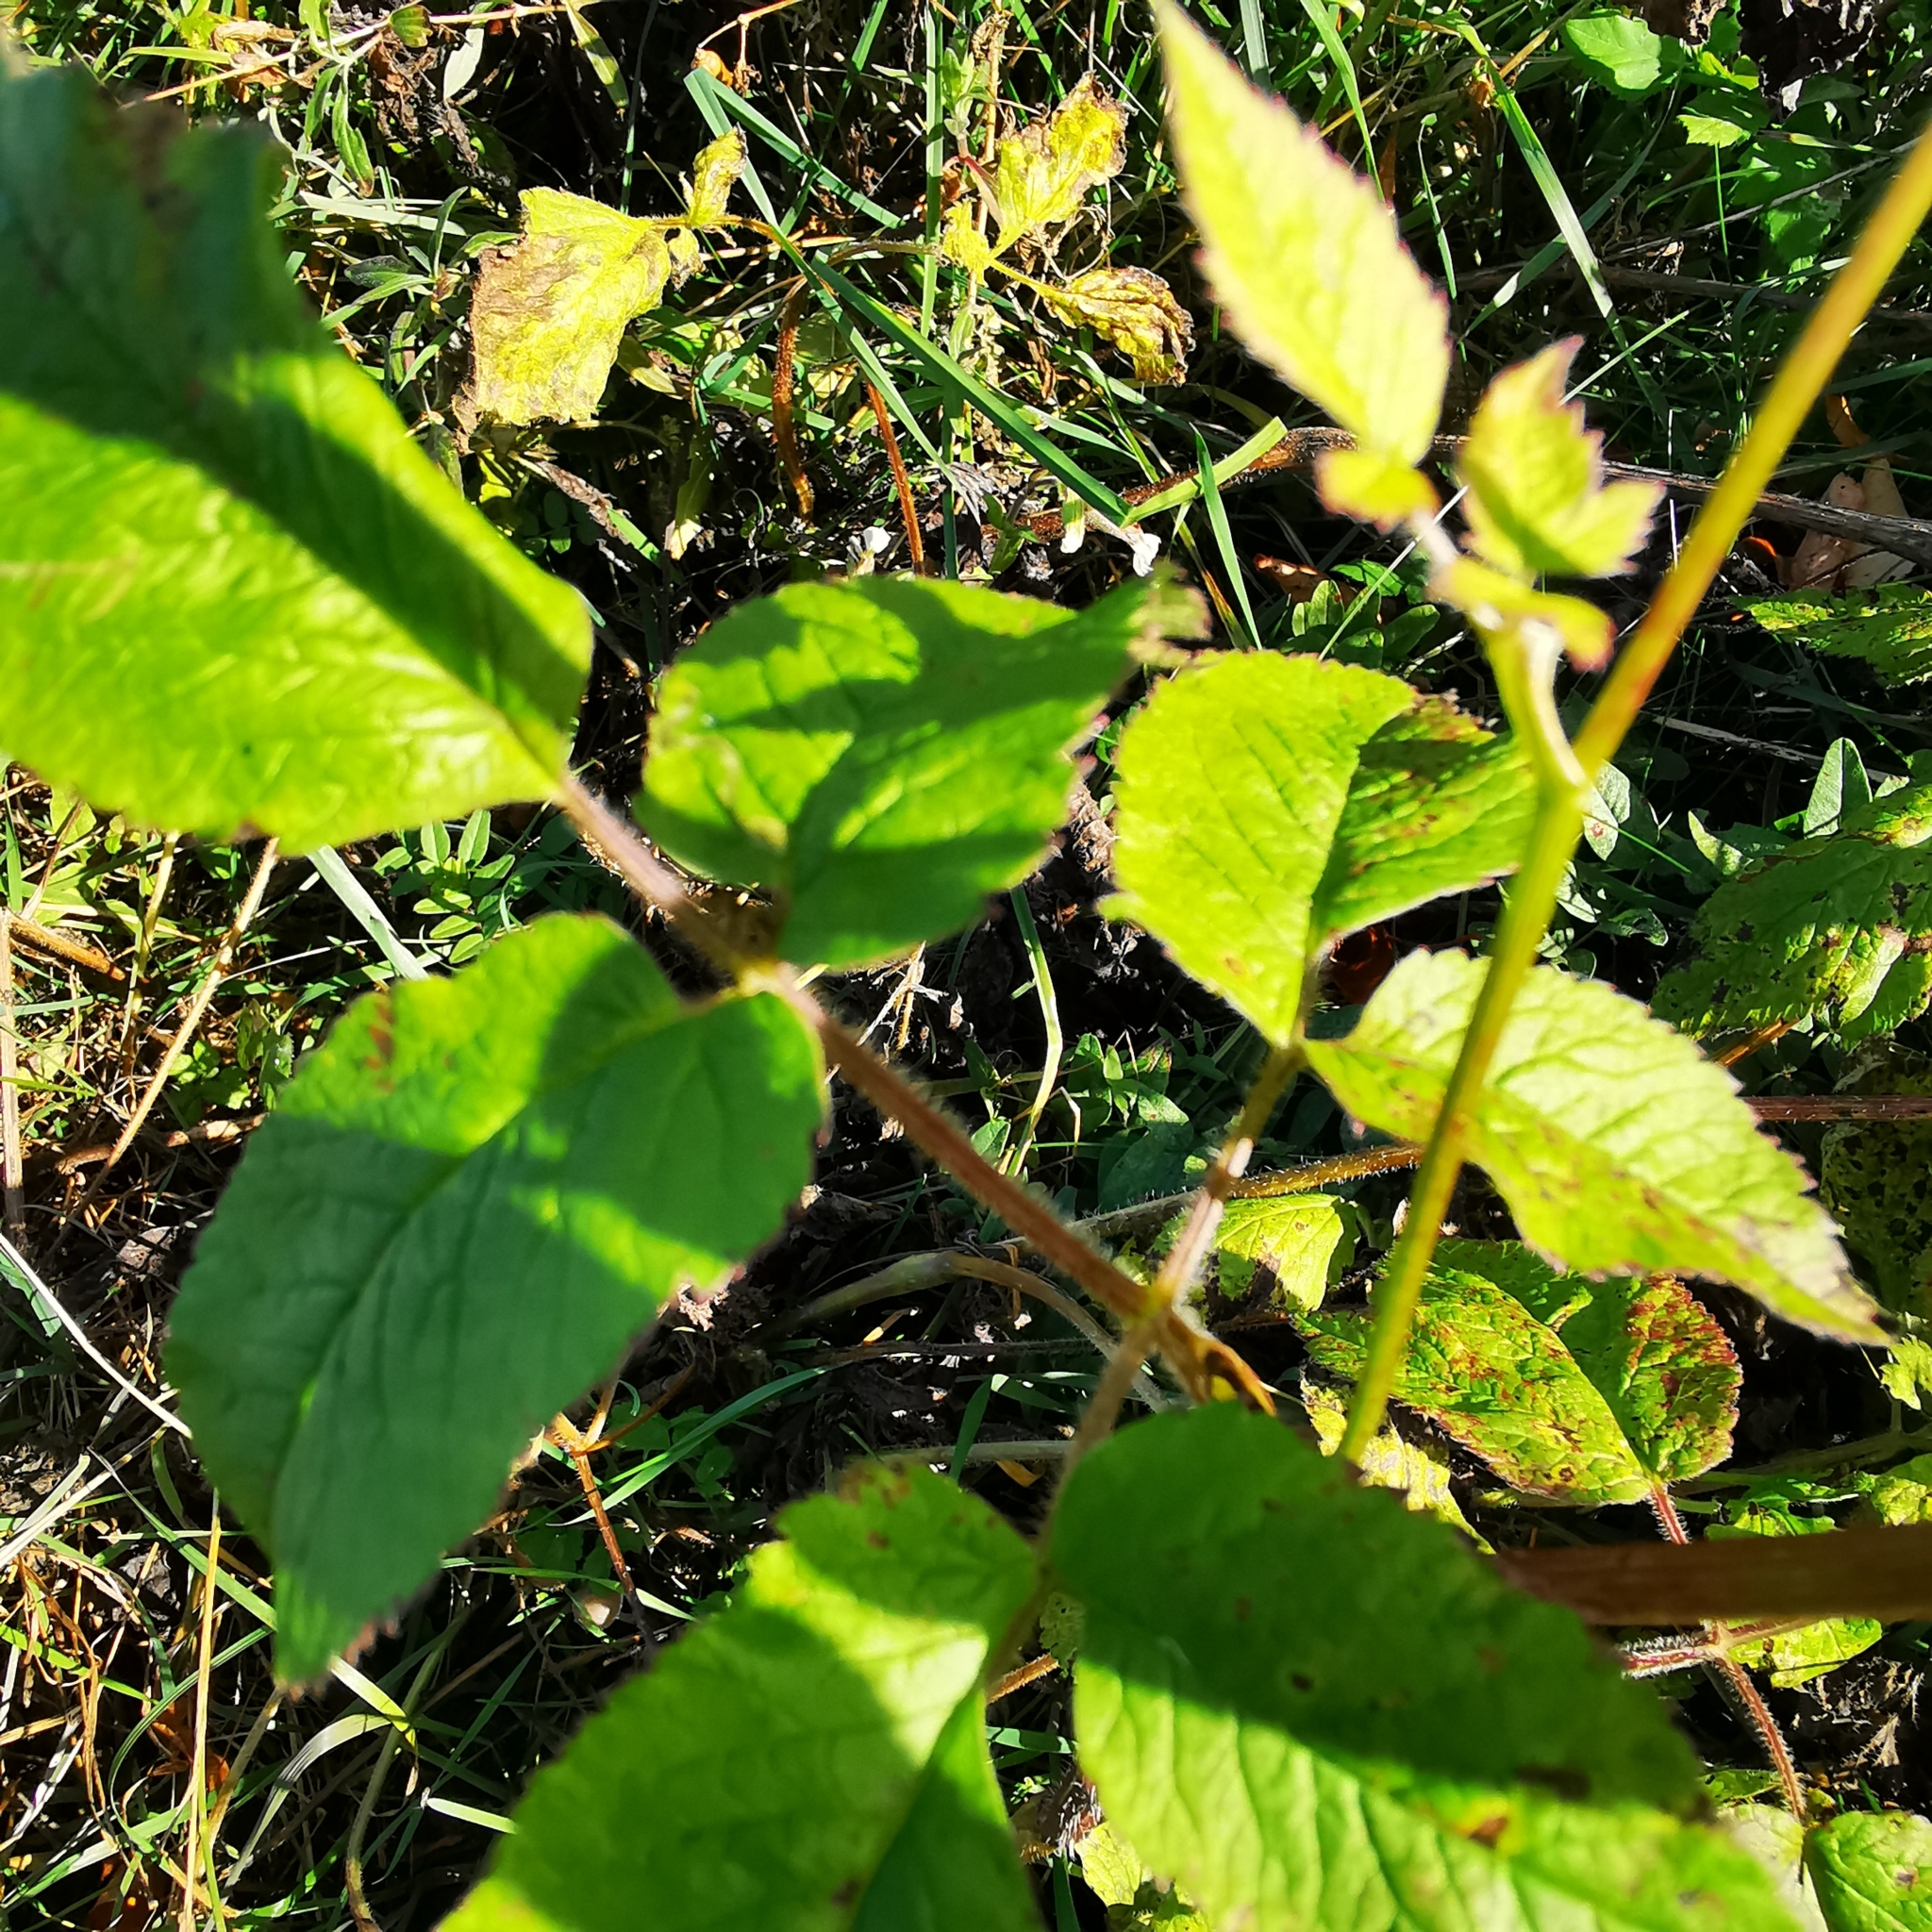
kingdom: Plantae
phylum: Tracheophyta
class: Magnoliopsida
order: Apiales
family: Apiaceae
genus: Chaerophyllum
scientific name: Chaerophyllum aromaticum
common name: Broadleaf chervil
